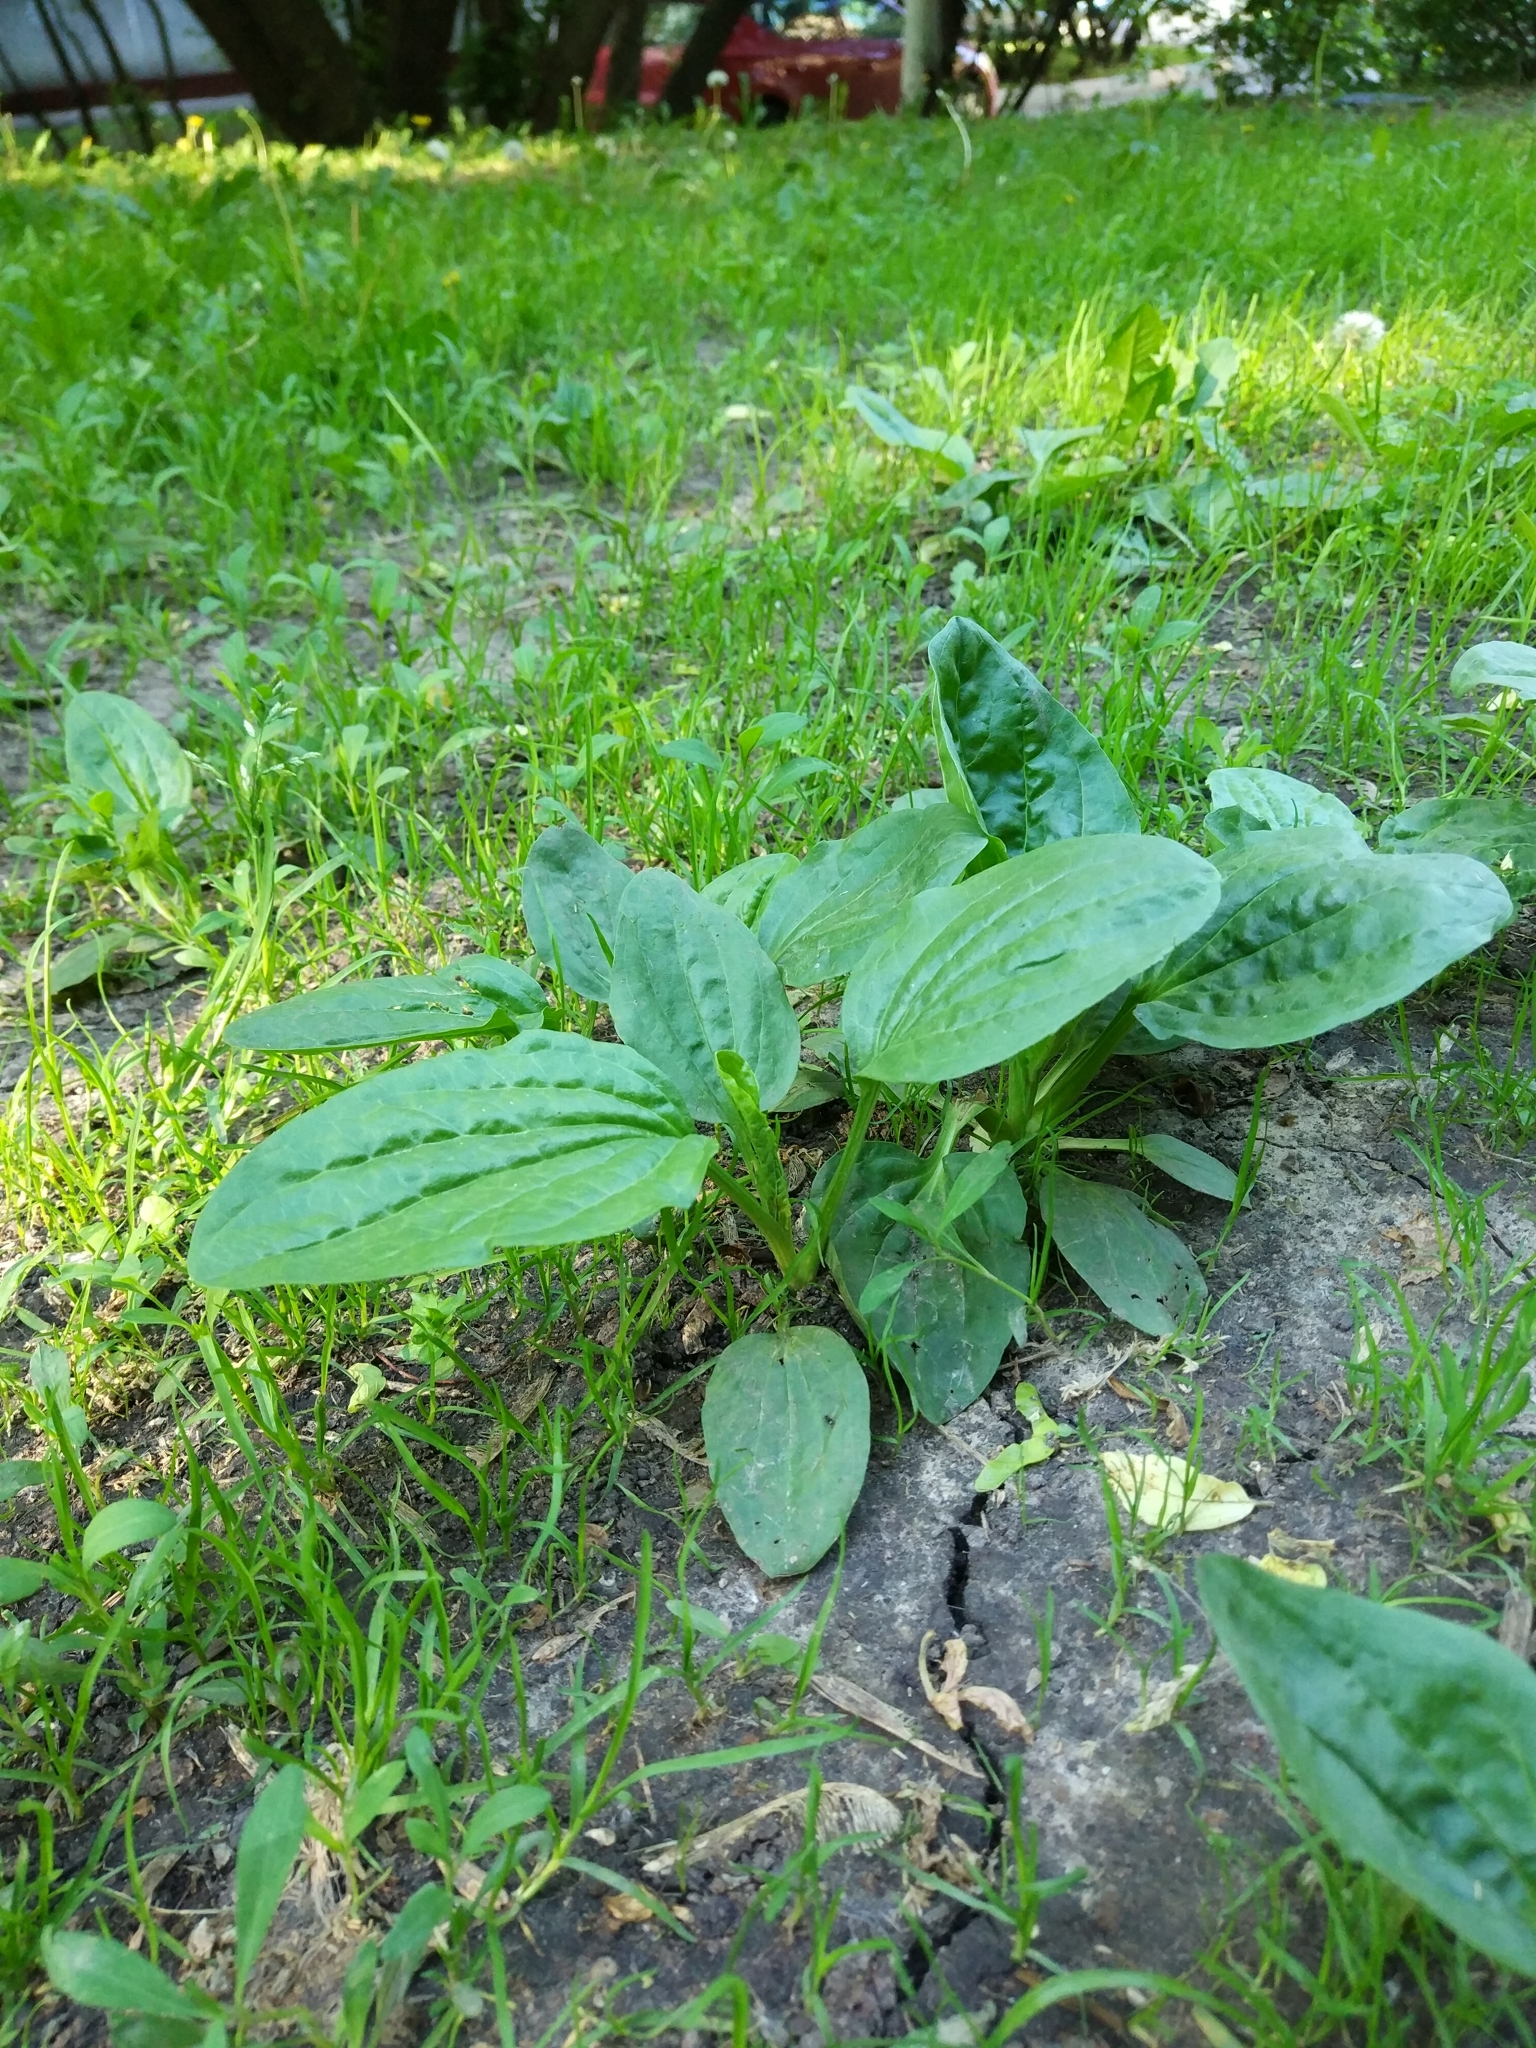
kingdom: Plantae
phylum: Tracheophyta
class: Magnoliopsida
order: Lamiales
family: Plantaginaceae
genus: Plantago
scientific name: Plantago major
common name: Common plantain
